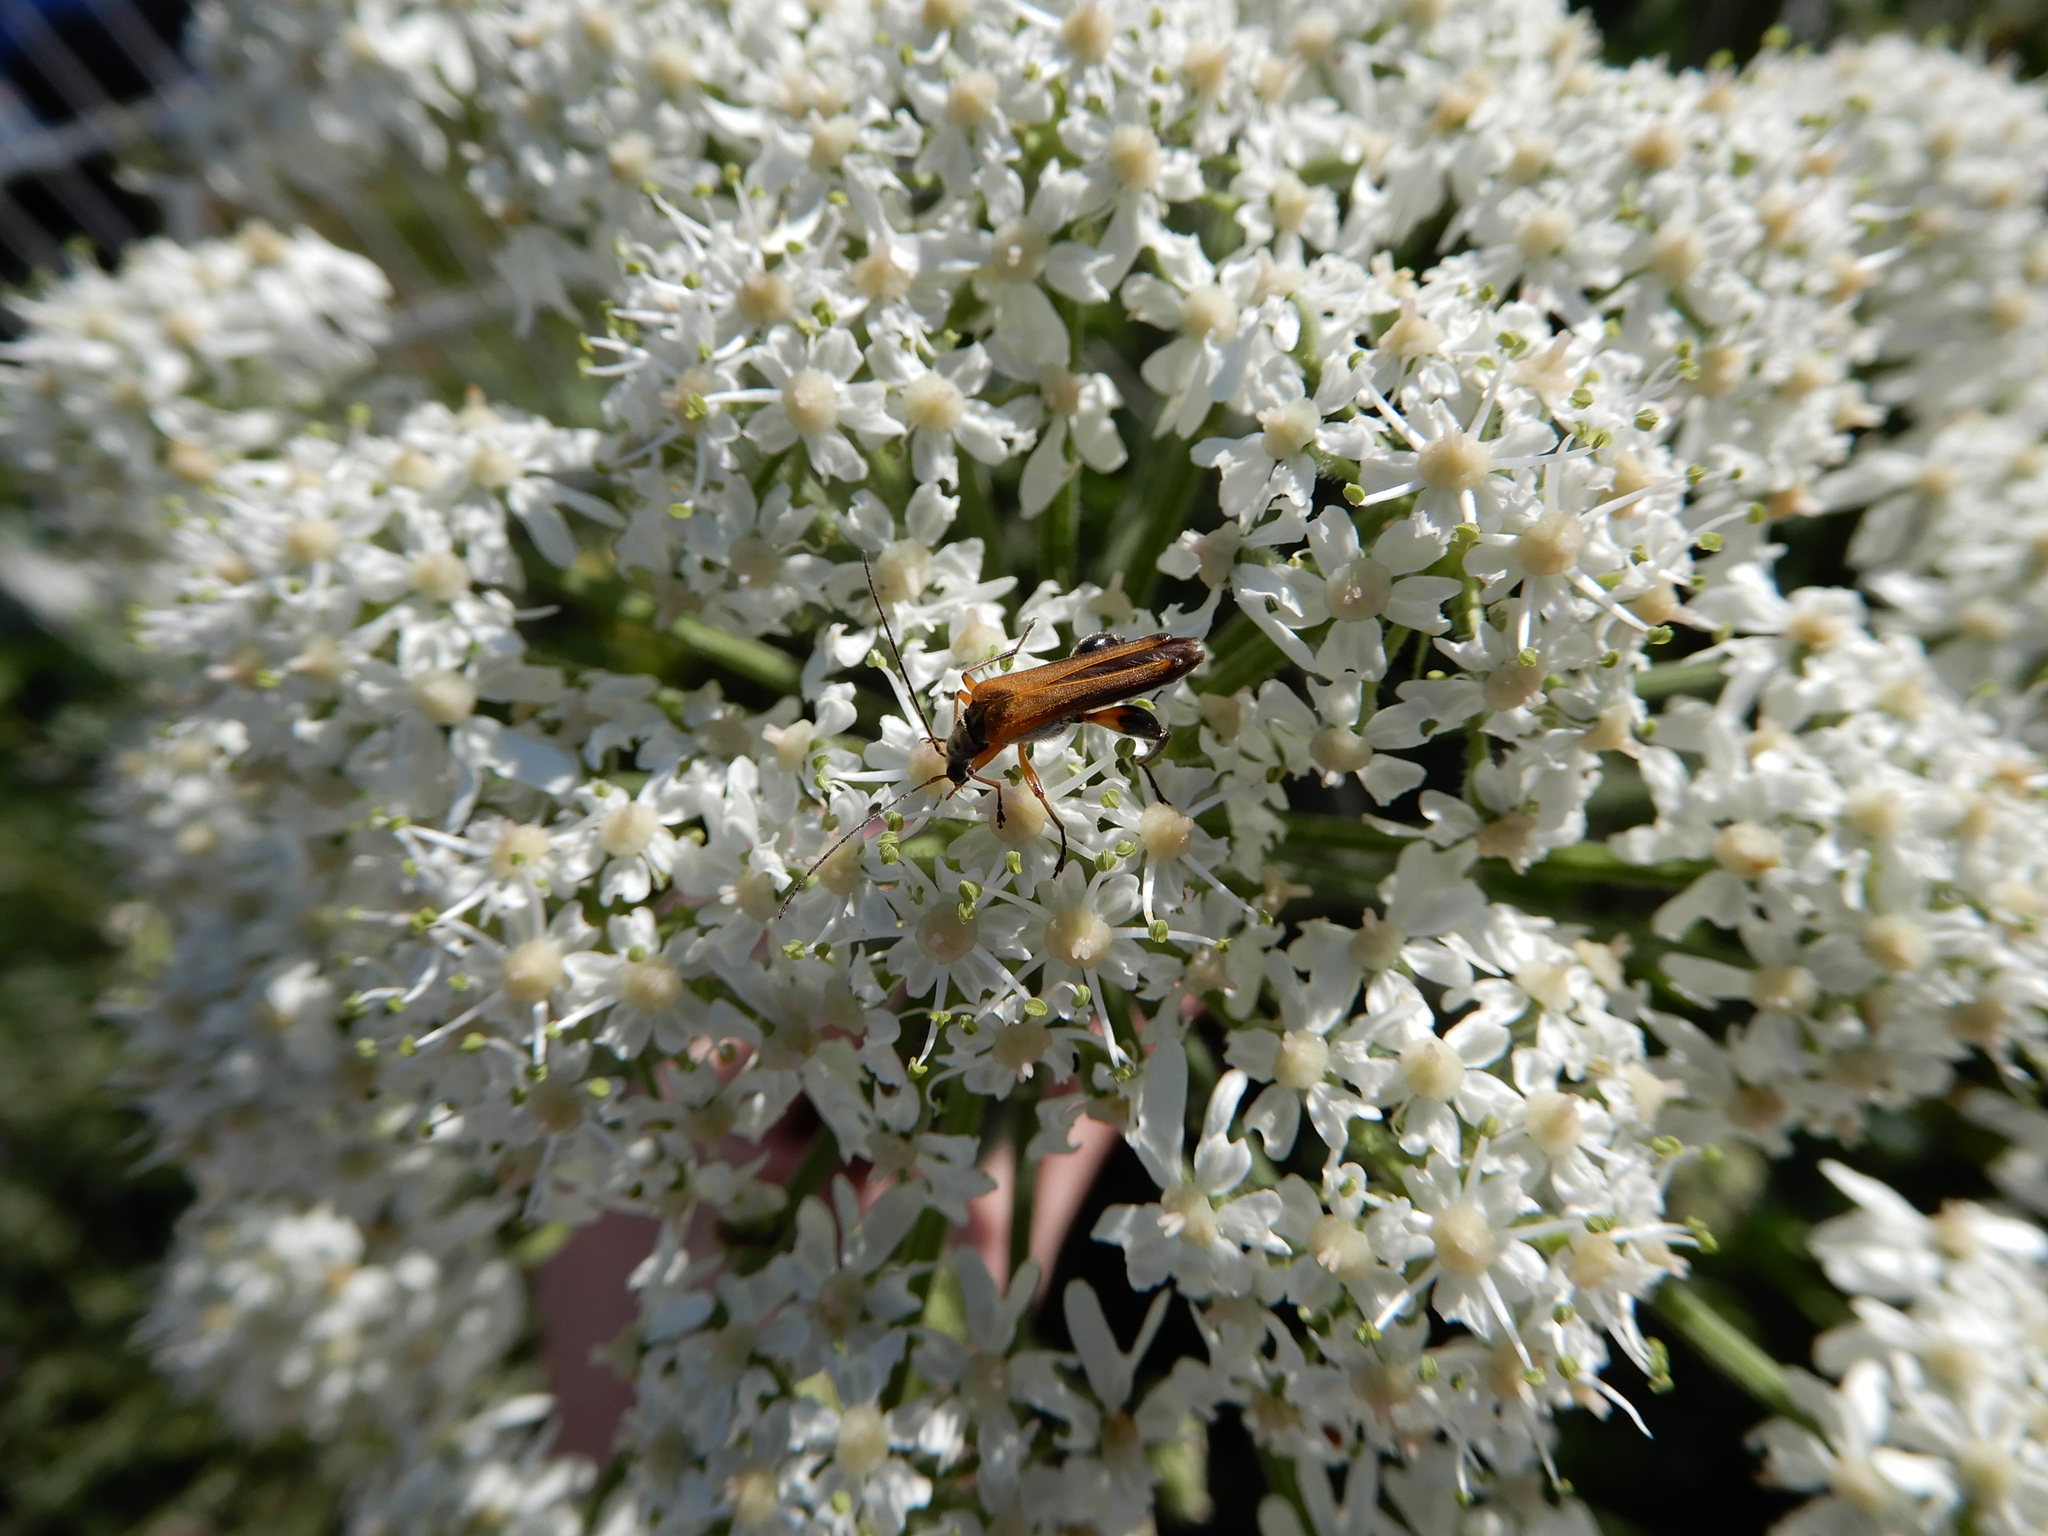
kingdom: Animalia
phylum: Arthropoda
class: Insecta
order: Coleoptera
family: Oedemeridae
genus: Oedemera
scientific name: Oedemera podagrariae
